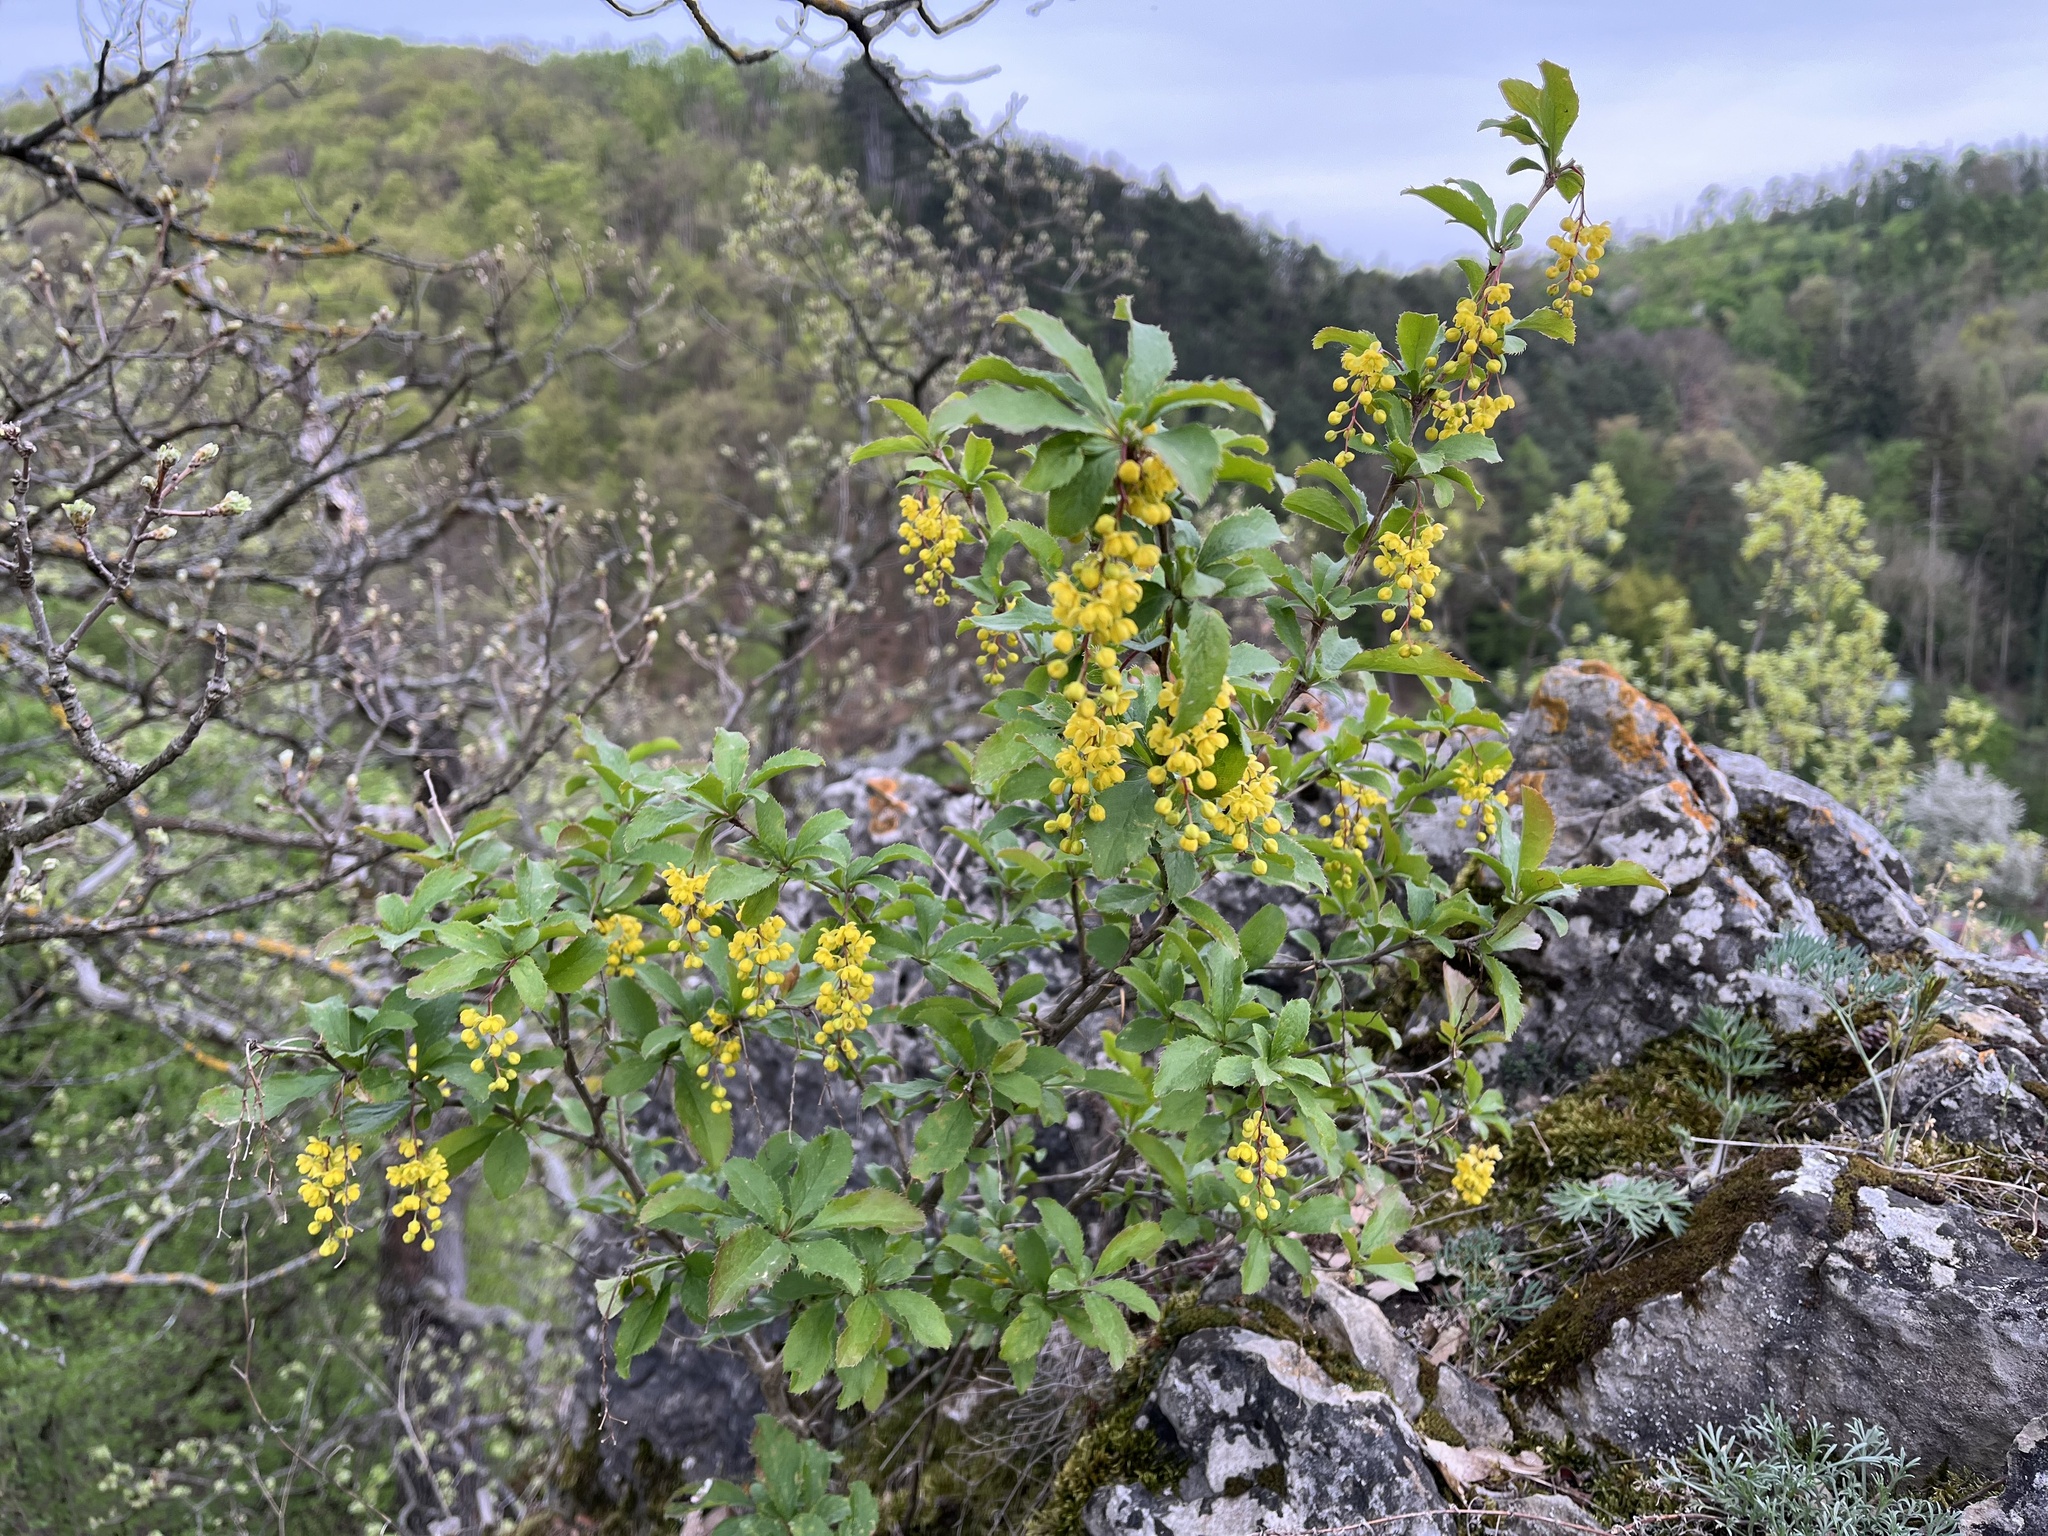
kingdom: Plantae
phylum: Tracheophyta
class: Magnoliopsida
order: Ranunculales
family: Berberidaceae
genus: Berberis
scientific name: Berberis vulgaris
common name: Barberry
